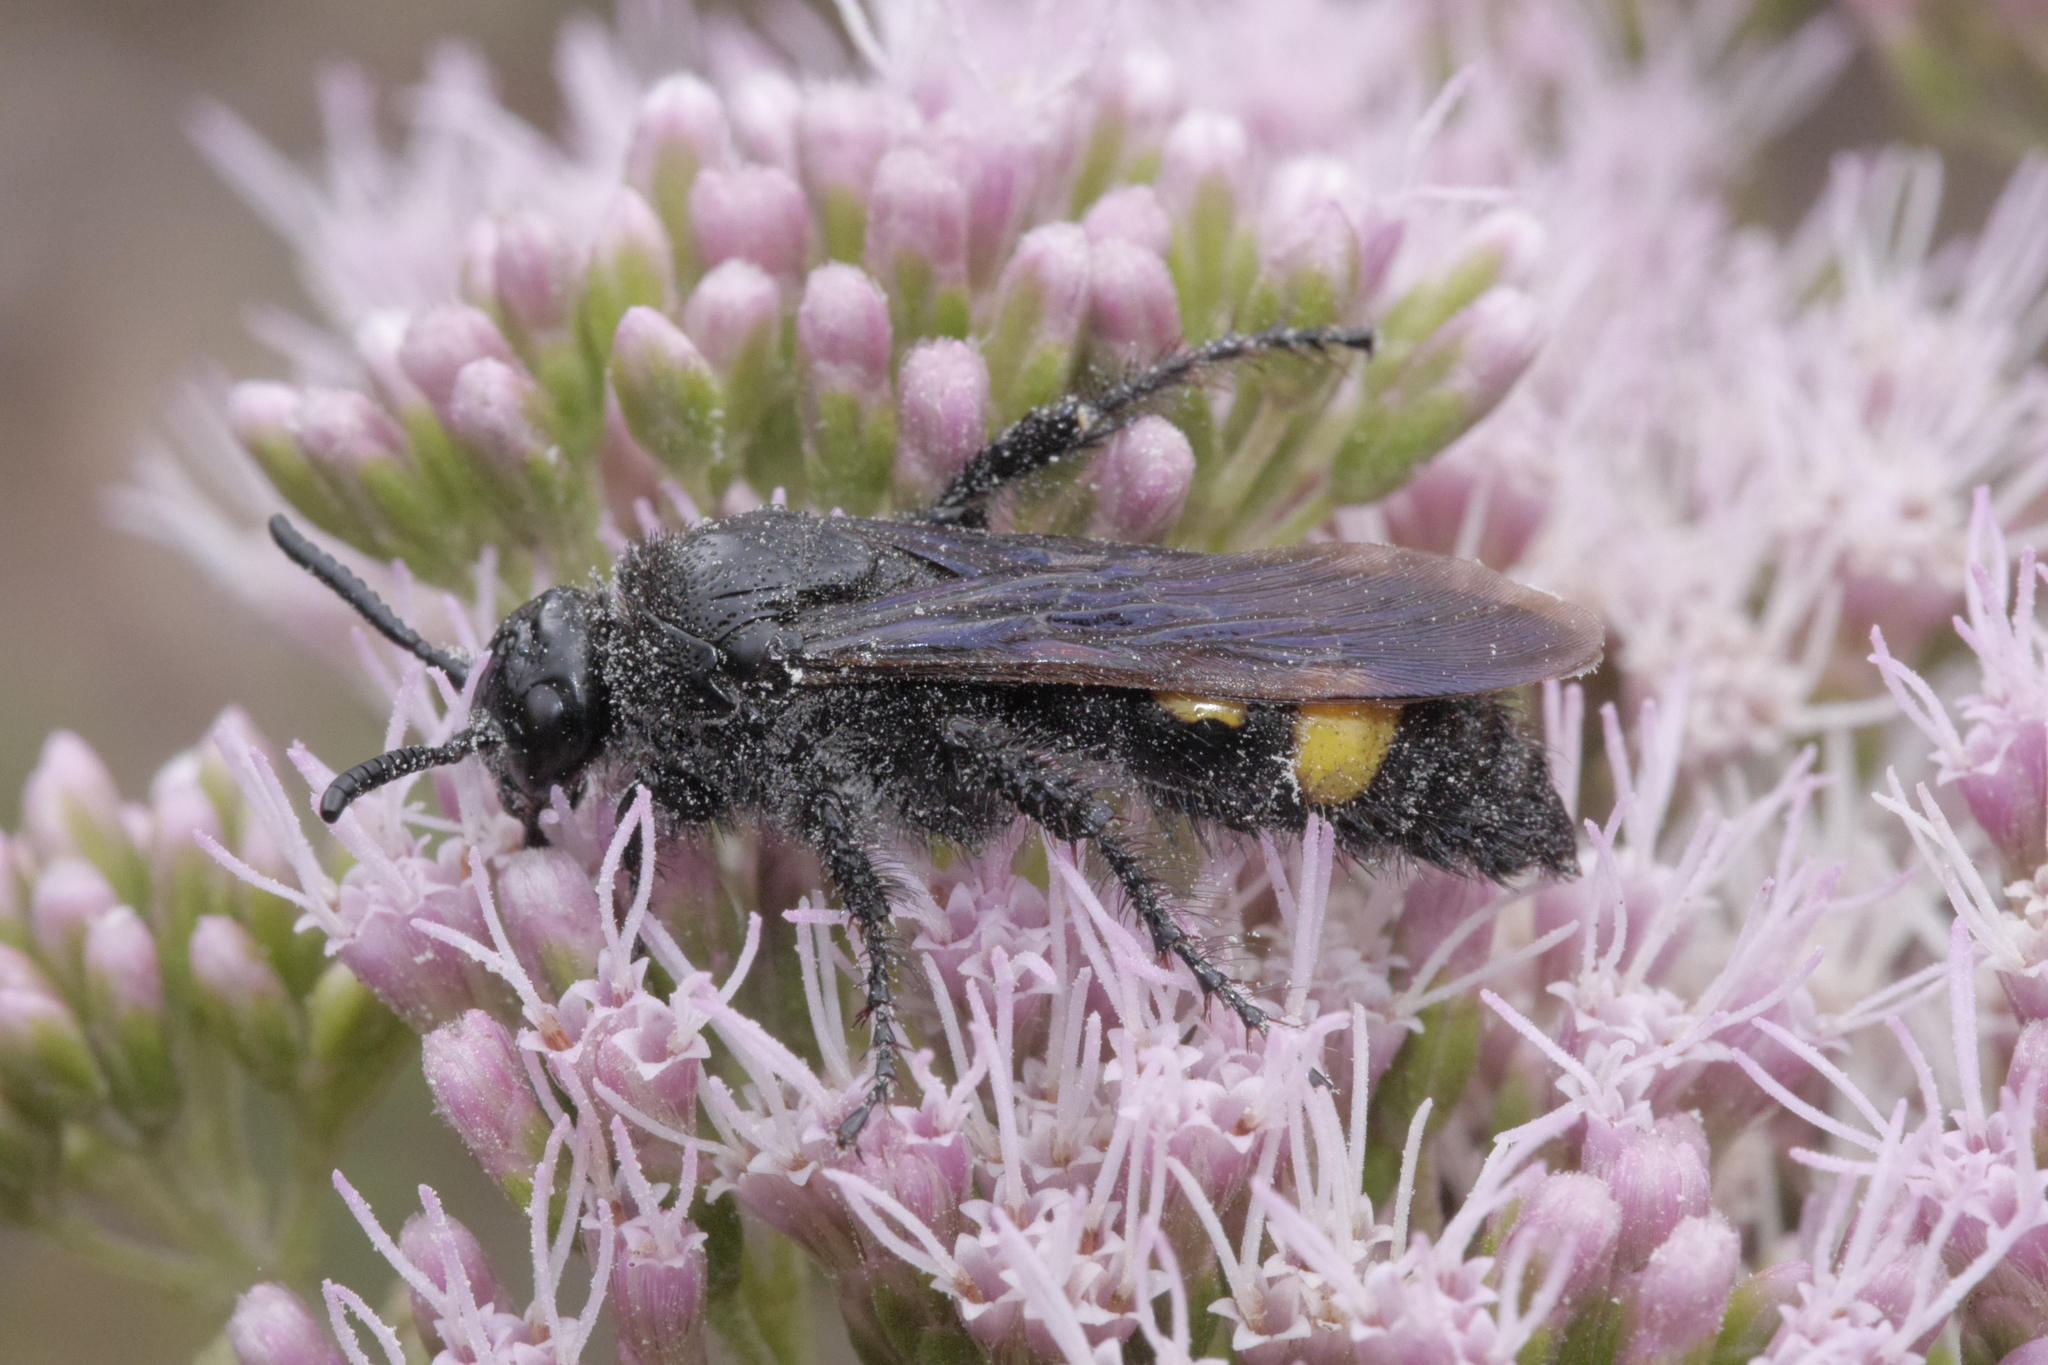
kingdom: Animalia
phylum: Arthropoda
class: Insecta
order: Hymenoptera
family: Scoliidae
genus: Scolia
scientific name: Scolia hirta
